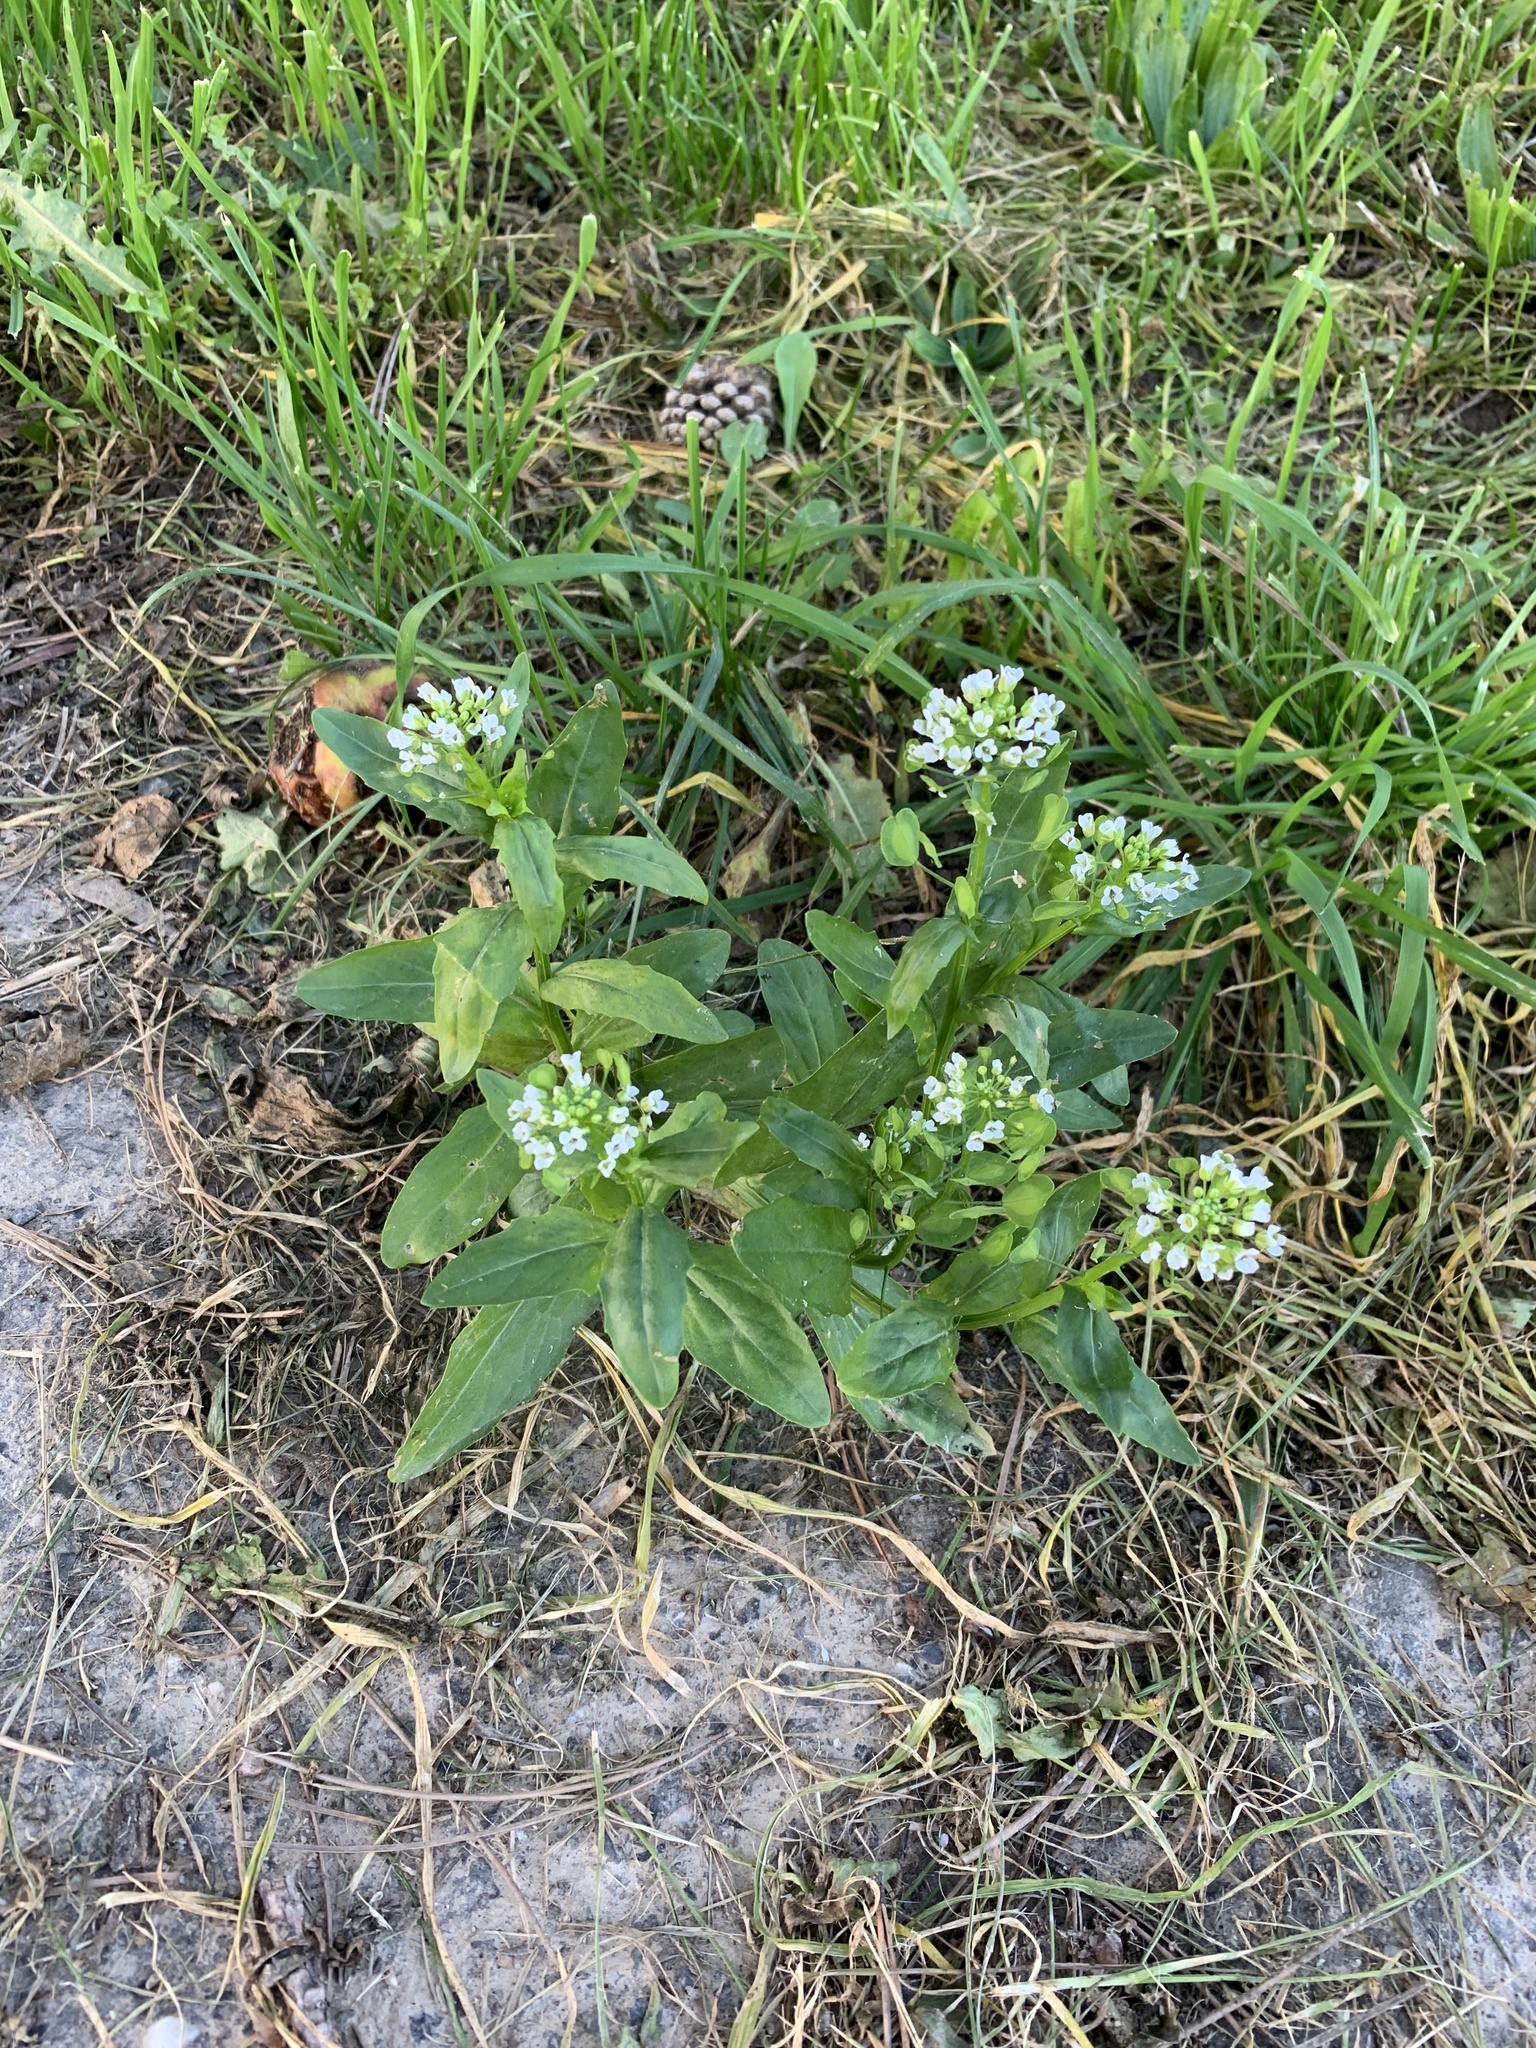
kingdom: Plantae
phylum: Tracheophyta
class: Magnoliopsida
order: Brassicales
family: Brassicaceae
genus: Thlaspi
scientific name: Thlaspi arvense
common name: Field pennycress
